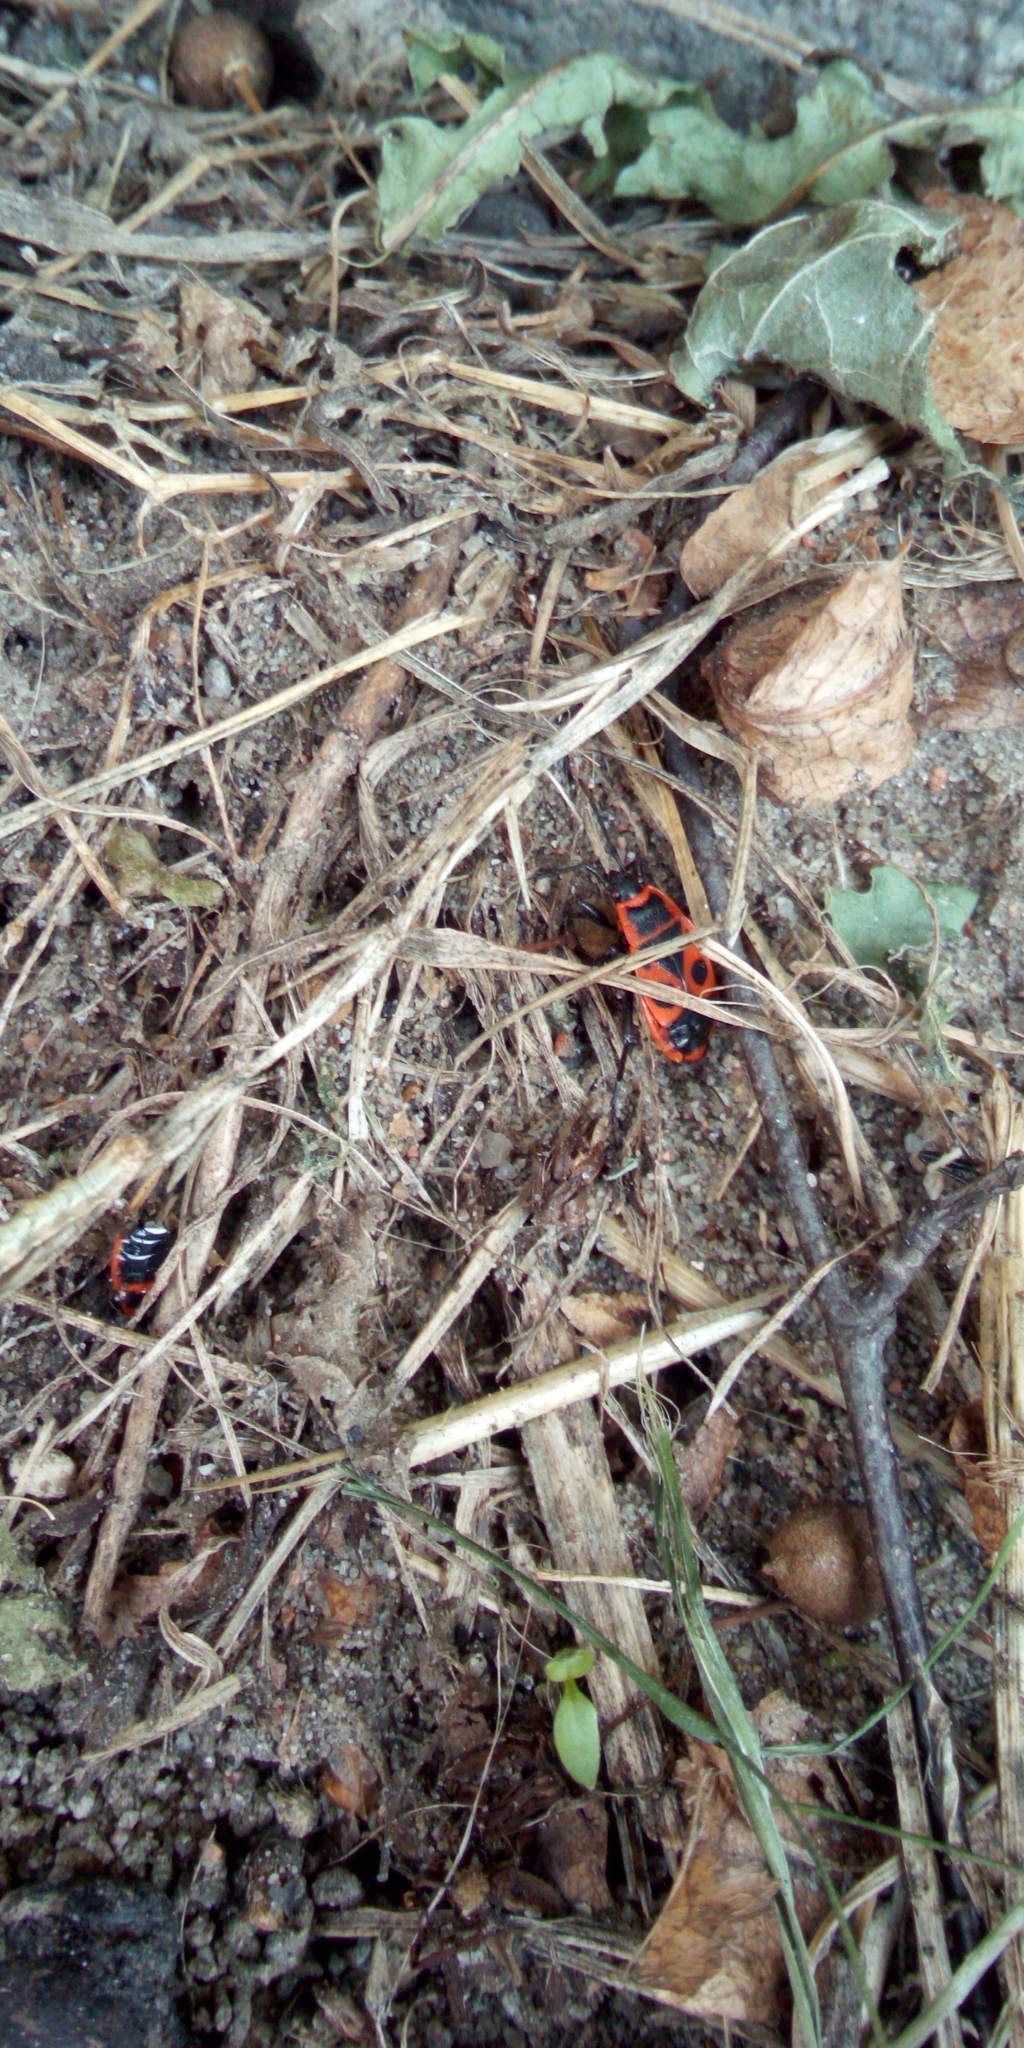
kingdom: Animalia
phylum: Arthropoda
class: Insecta
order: Hemiptera
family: Pyrrhocoridae
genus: Pyrrhocoris
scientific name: Pyrrhocoris apterus
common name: Firebug
